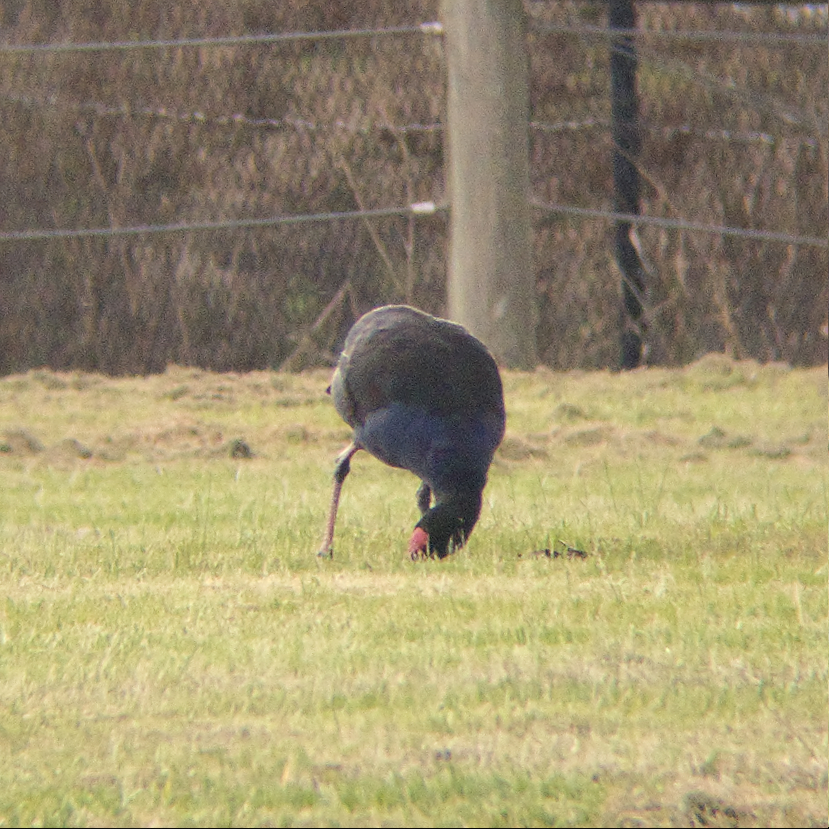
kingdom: Animalia
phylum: Chordata
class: Aves
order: Gruiformes
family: Rallidae
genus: Porphyrio
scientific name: Porphyrio melanotus
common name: Australasian swamphen
